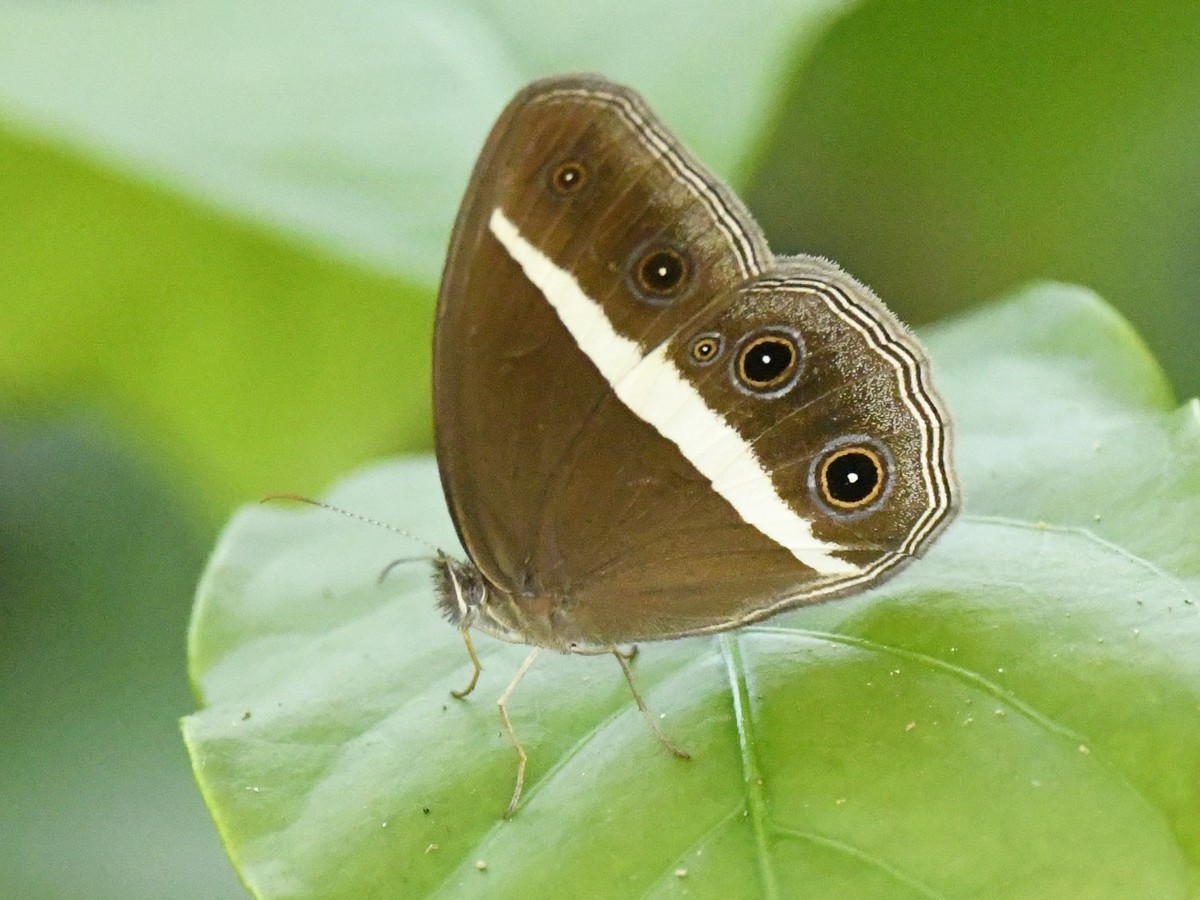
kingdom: Animalia
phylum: Arthropoda
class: Insecta
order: Lepidoptera
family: Nymphalidae
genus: Orsotriaena
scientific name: Orsotriaena medus
